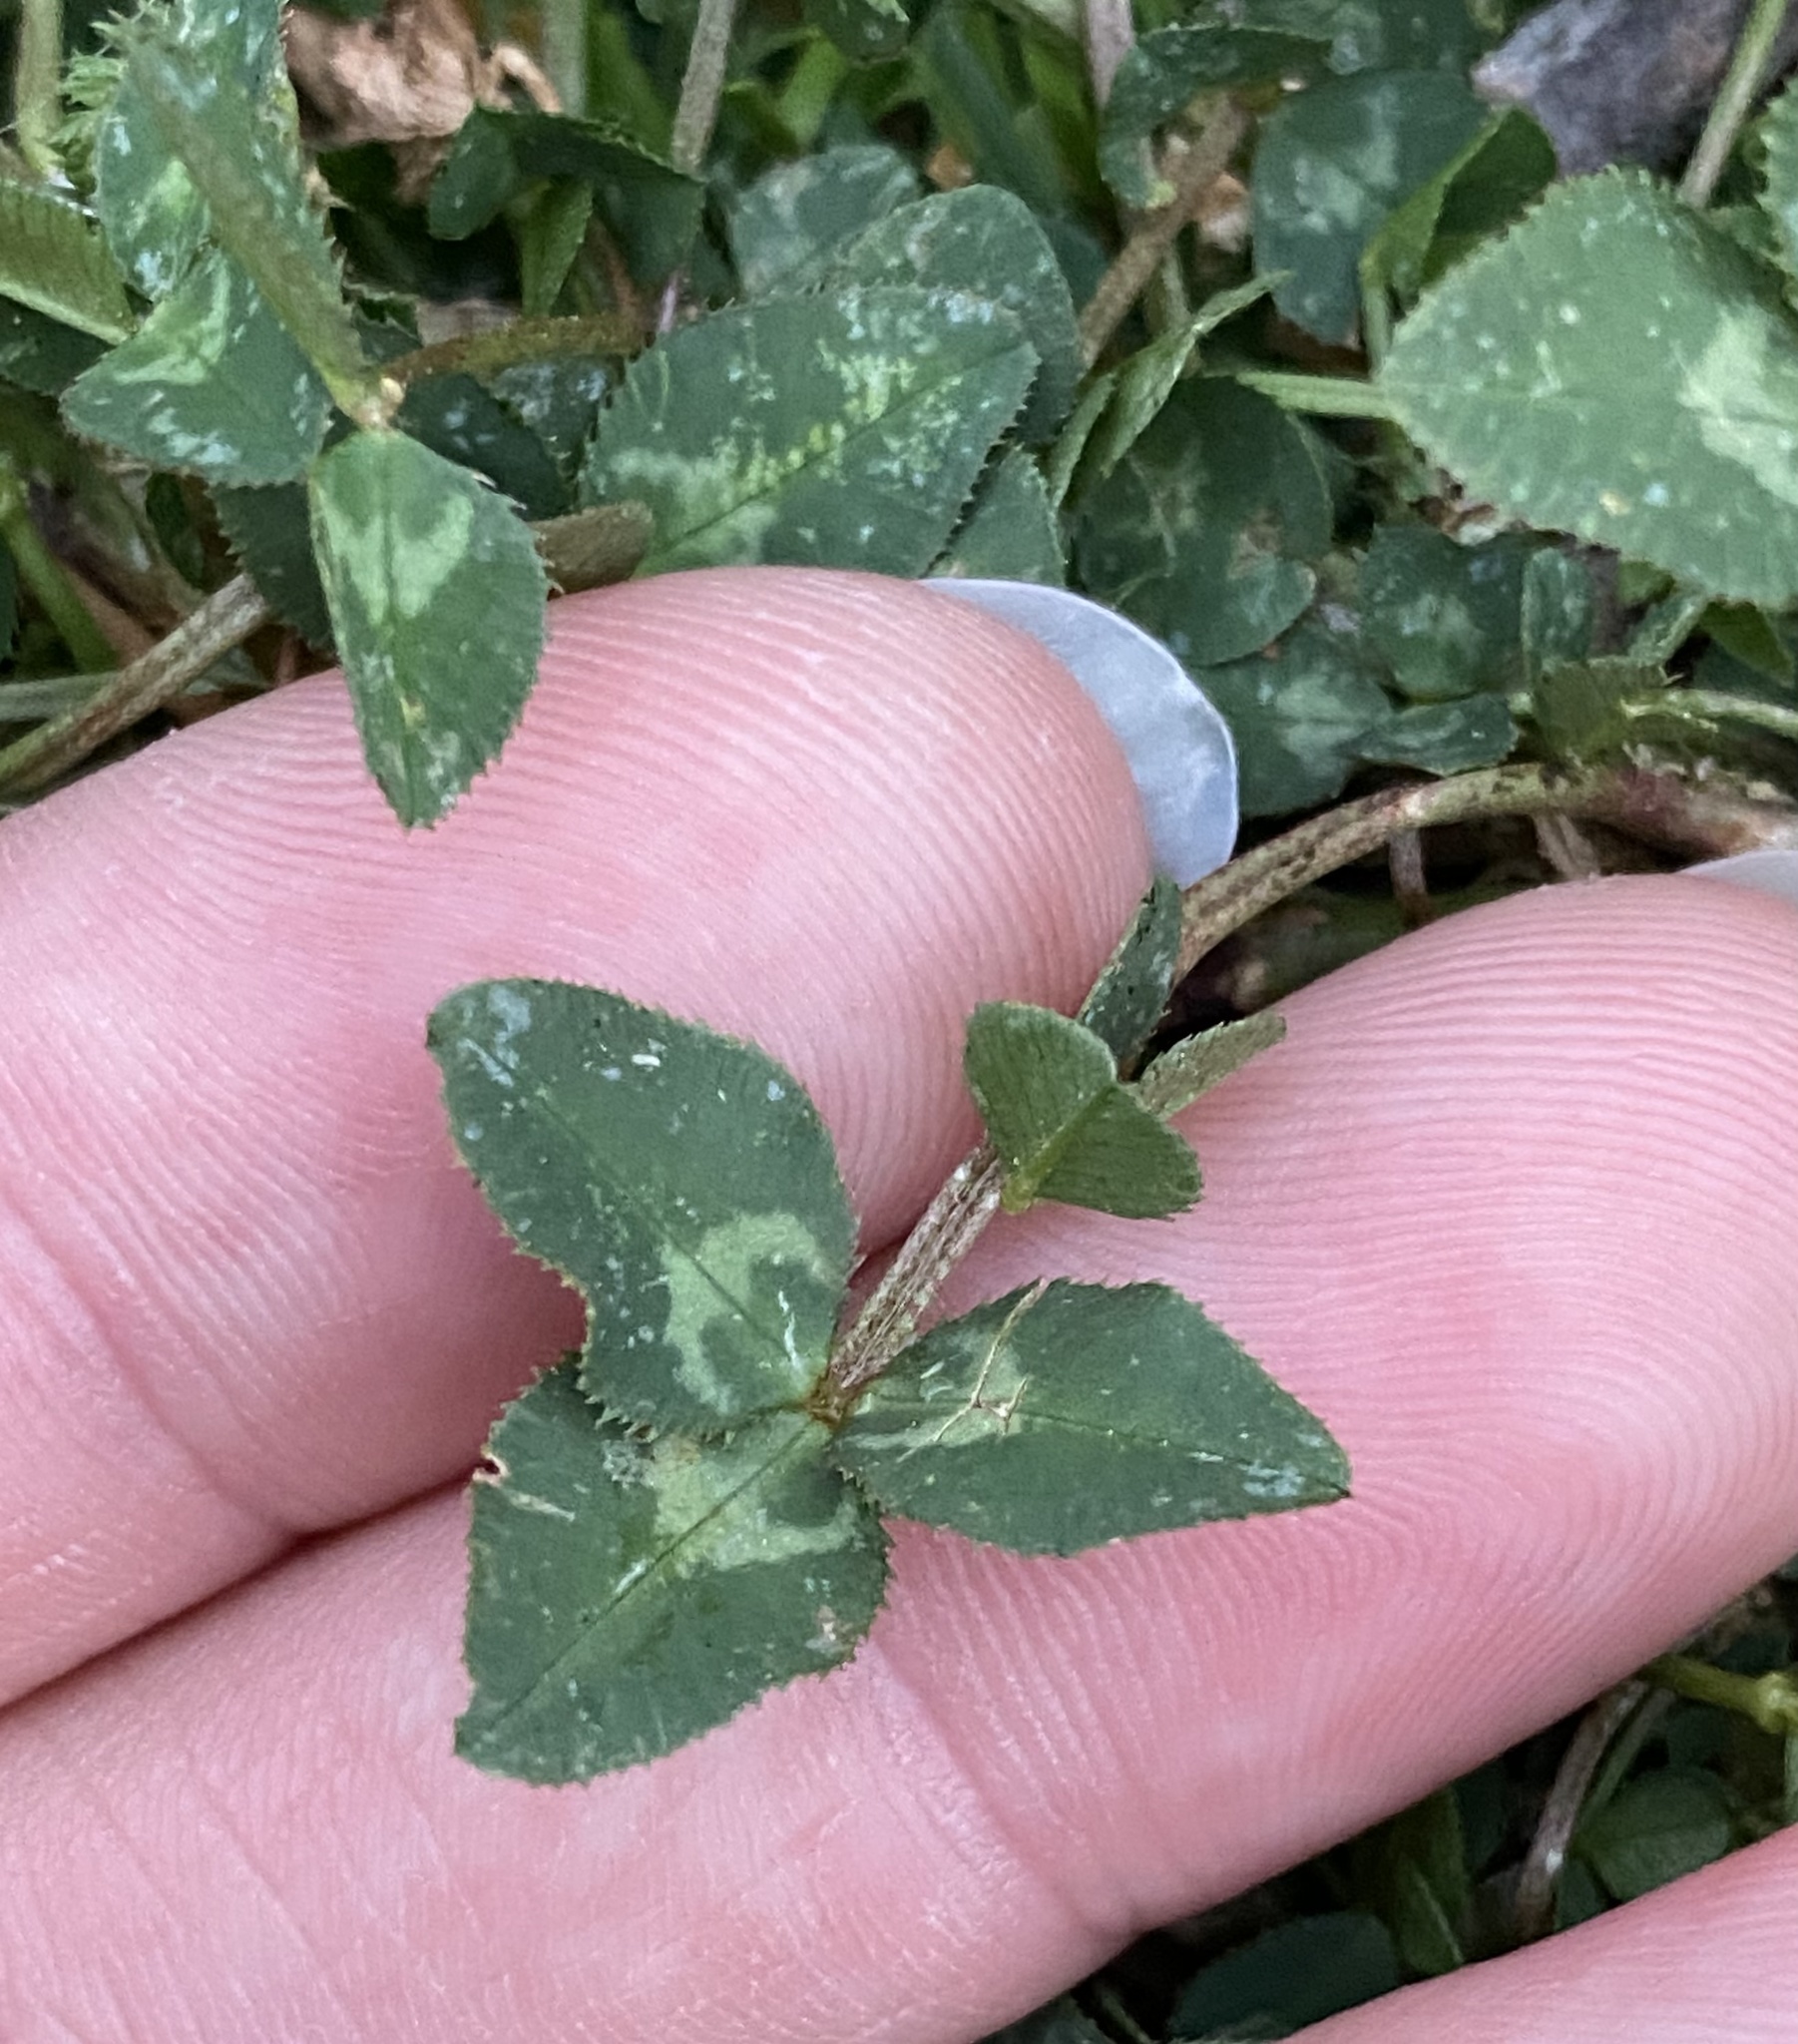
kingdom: Plantae
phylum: Tracheophyta
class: Magnoliopsida
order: Fabales
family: Fabaceae
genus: Trifolium
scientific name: Trifolium repens
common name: White clover
